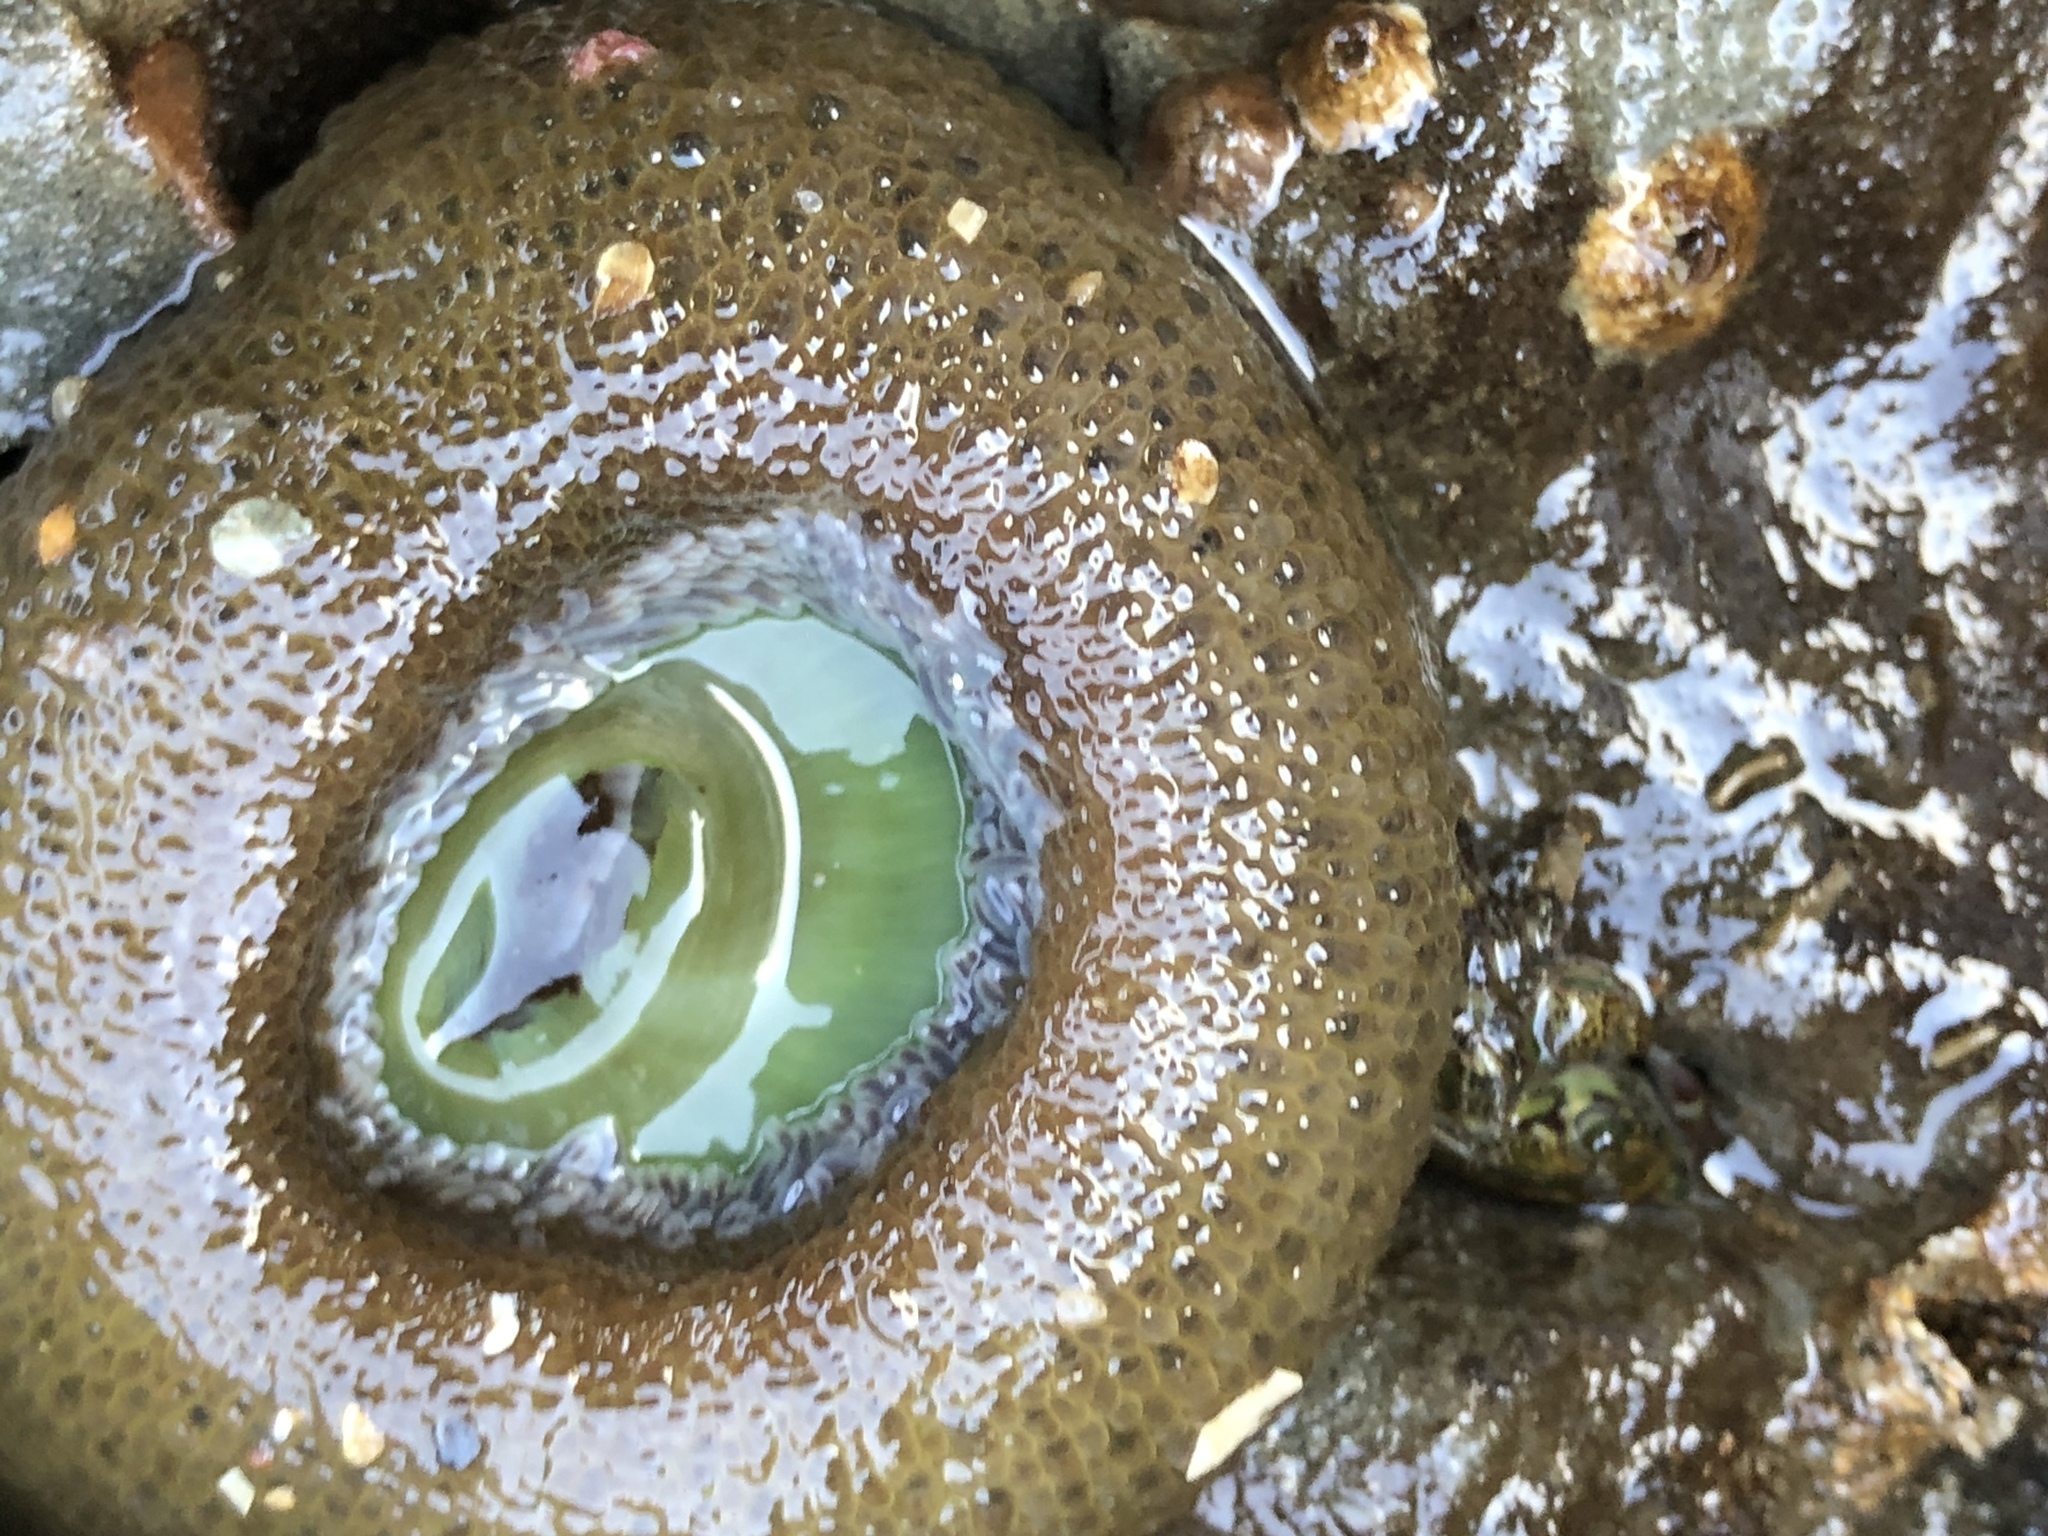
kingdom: Animalia
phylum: Cnidaria
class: Anthozoa
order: Actiniaria
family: Actiniidae
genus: Anthopleura
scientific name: Anthopleura xanthogrammica
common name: Giant green anemone
